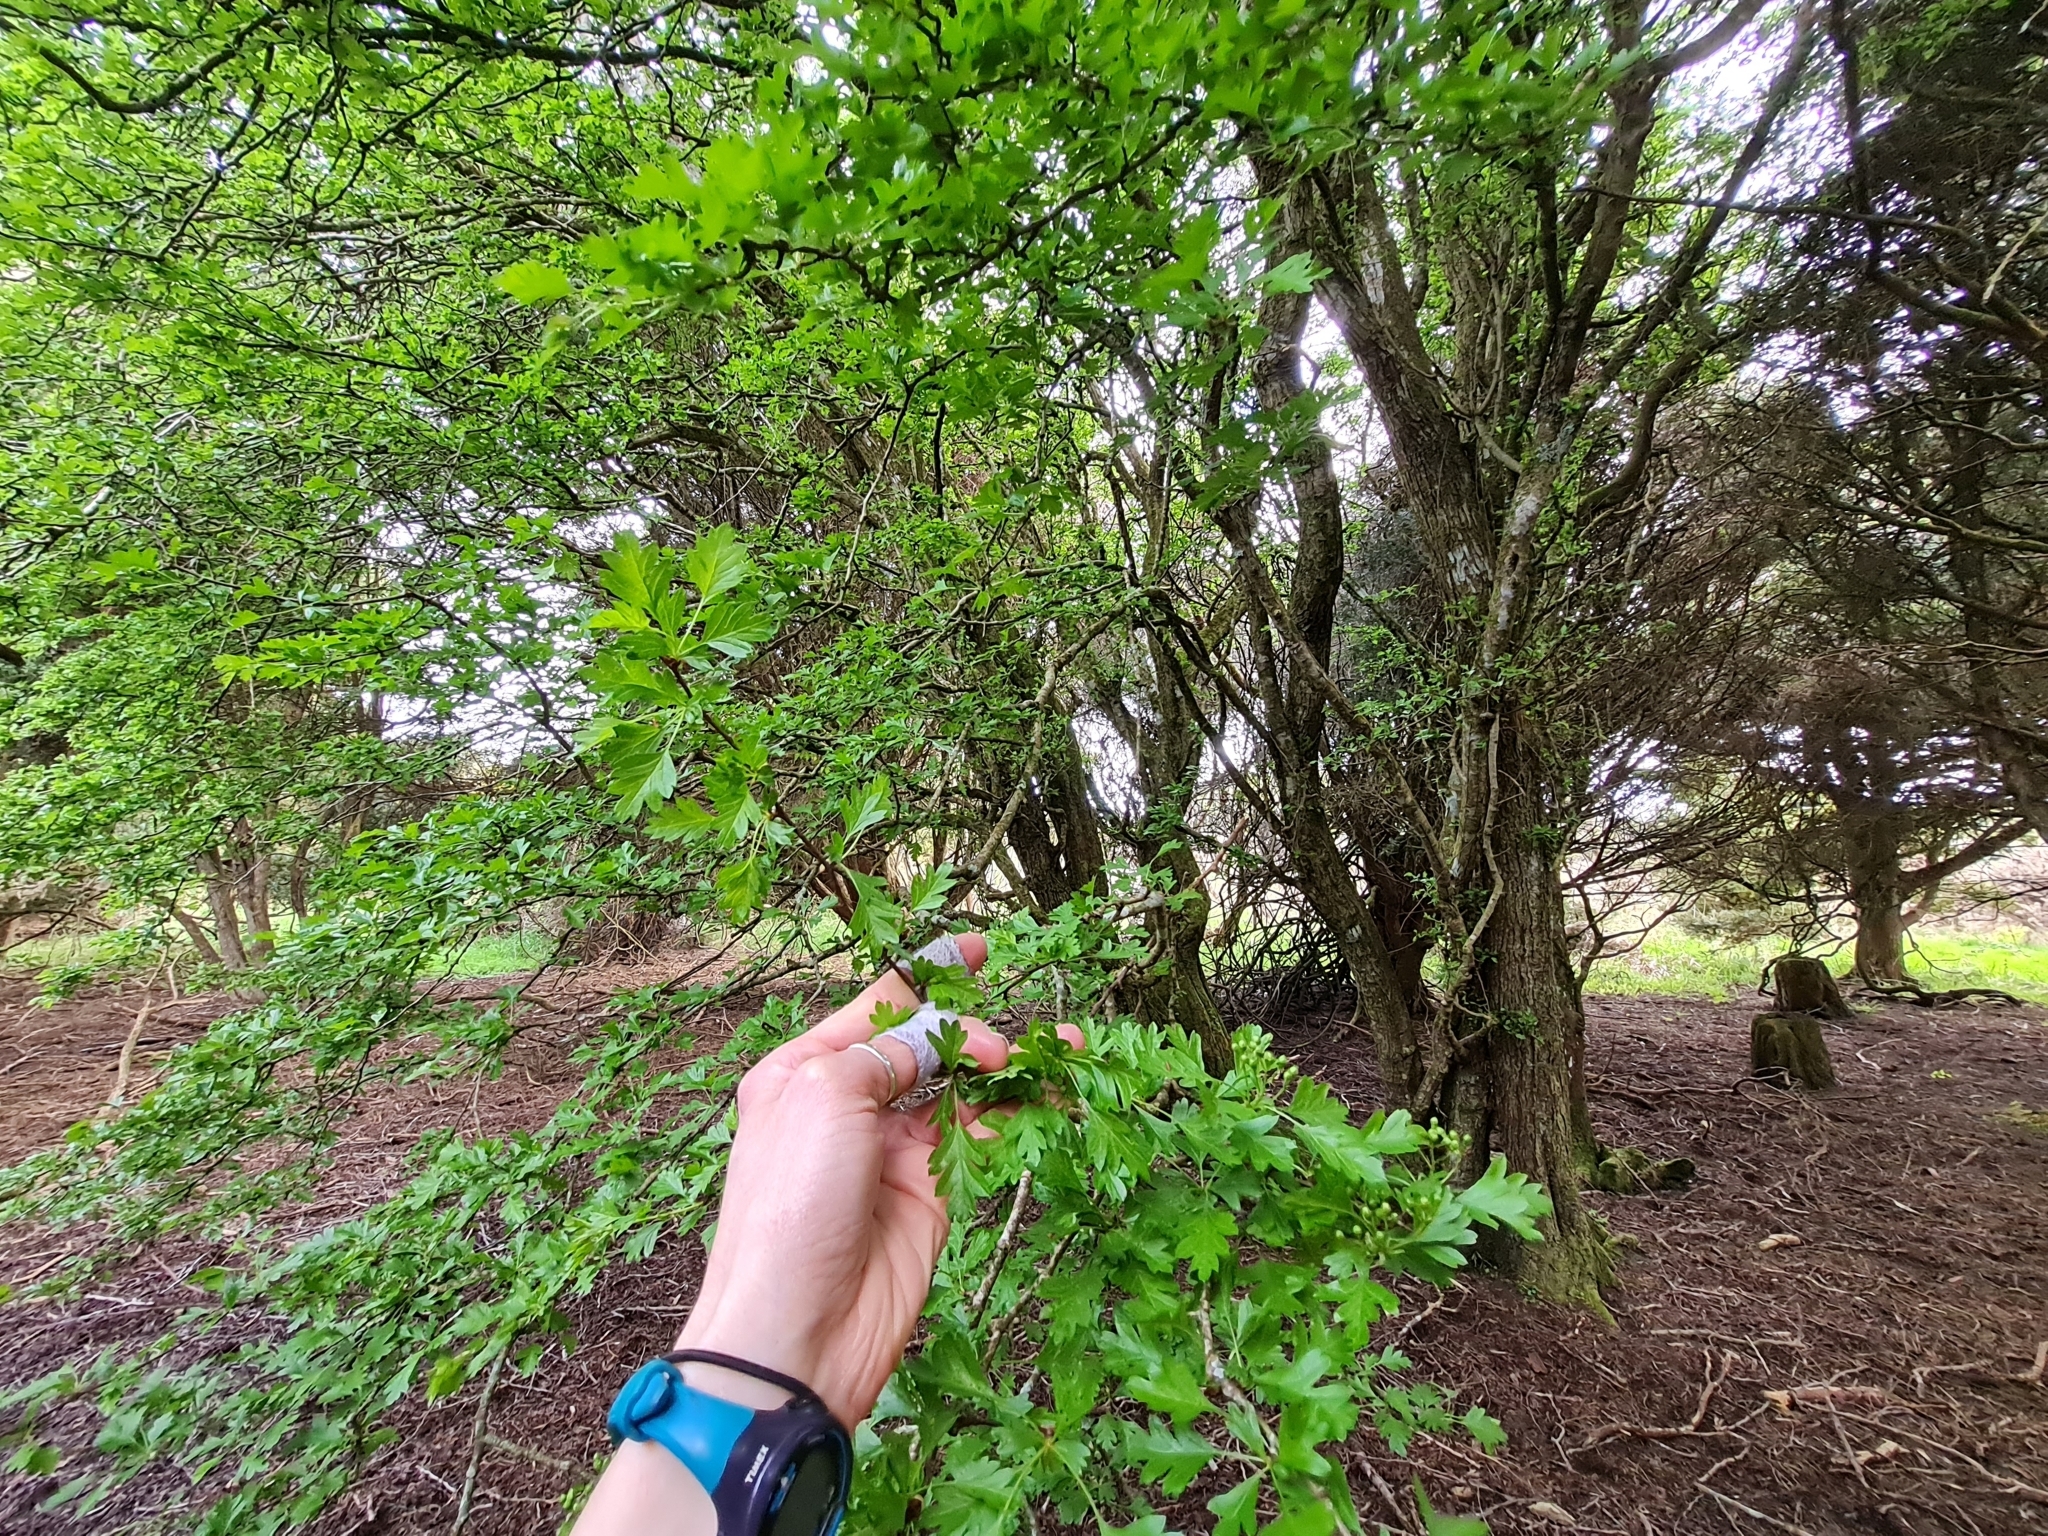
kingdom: Plantae
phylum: Tracheophyta
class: Magnoliopsida
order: Rosales
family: Rosaceae
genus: Crataegus
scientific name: Crataegus monogyna
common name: Hawthorn
